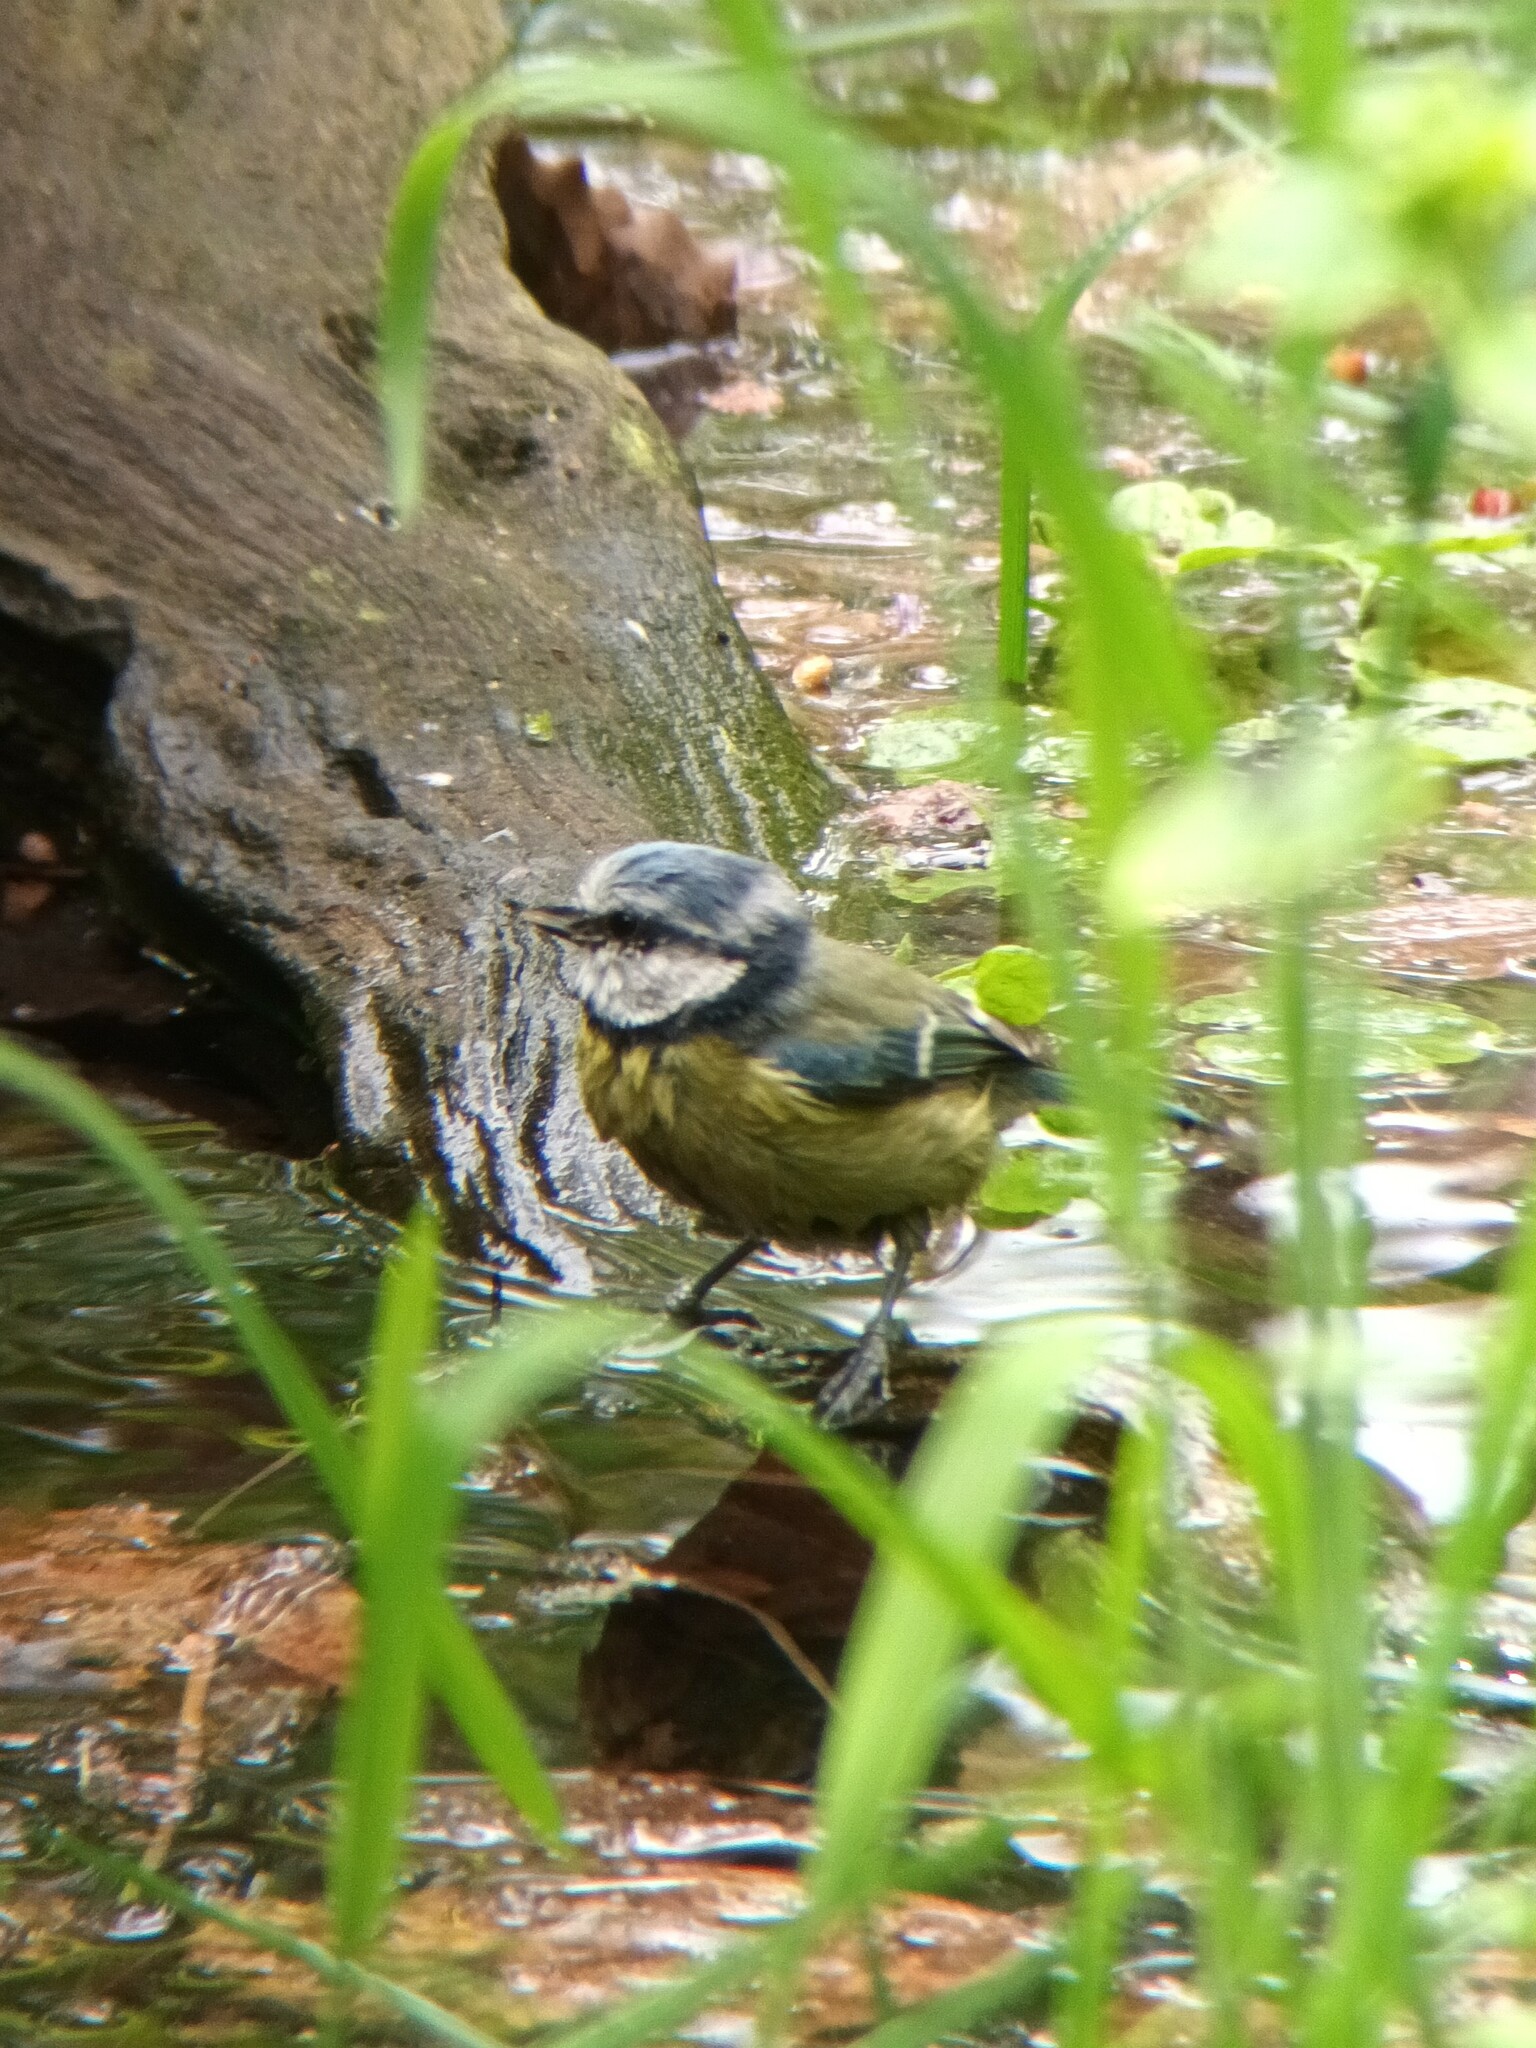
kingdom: Animalia
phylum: Chordata
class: Aves
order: Passeriformes
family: Paridae
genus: Cyanistes
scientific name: Cyanistes caeruleus
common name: Eurasian blue tit
